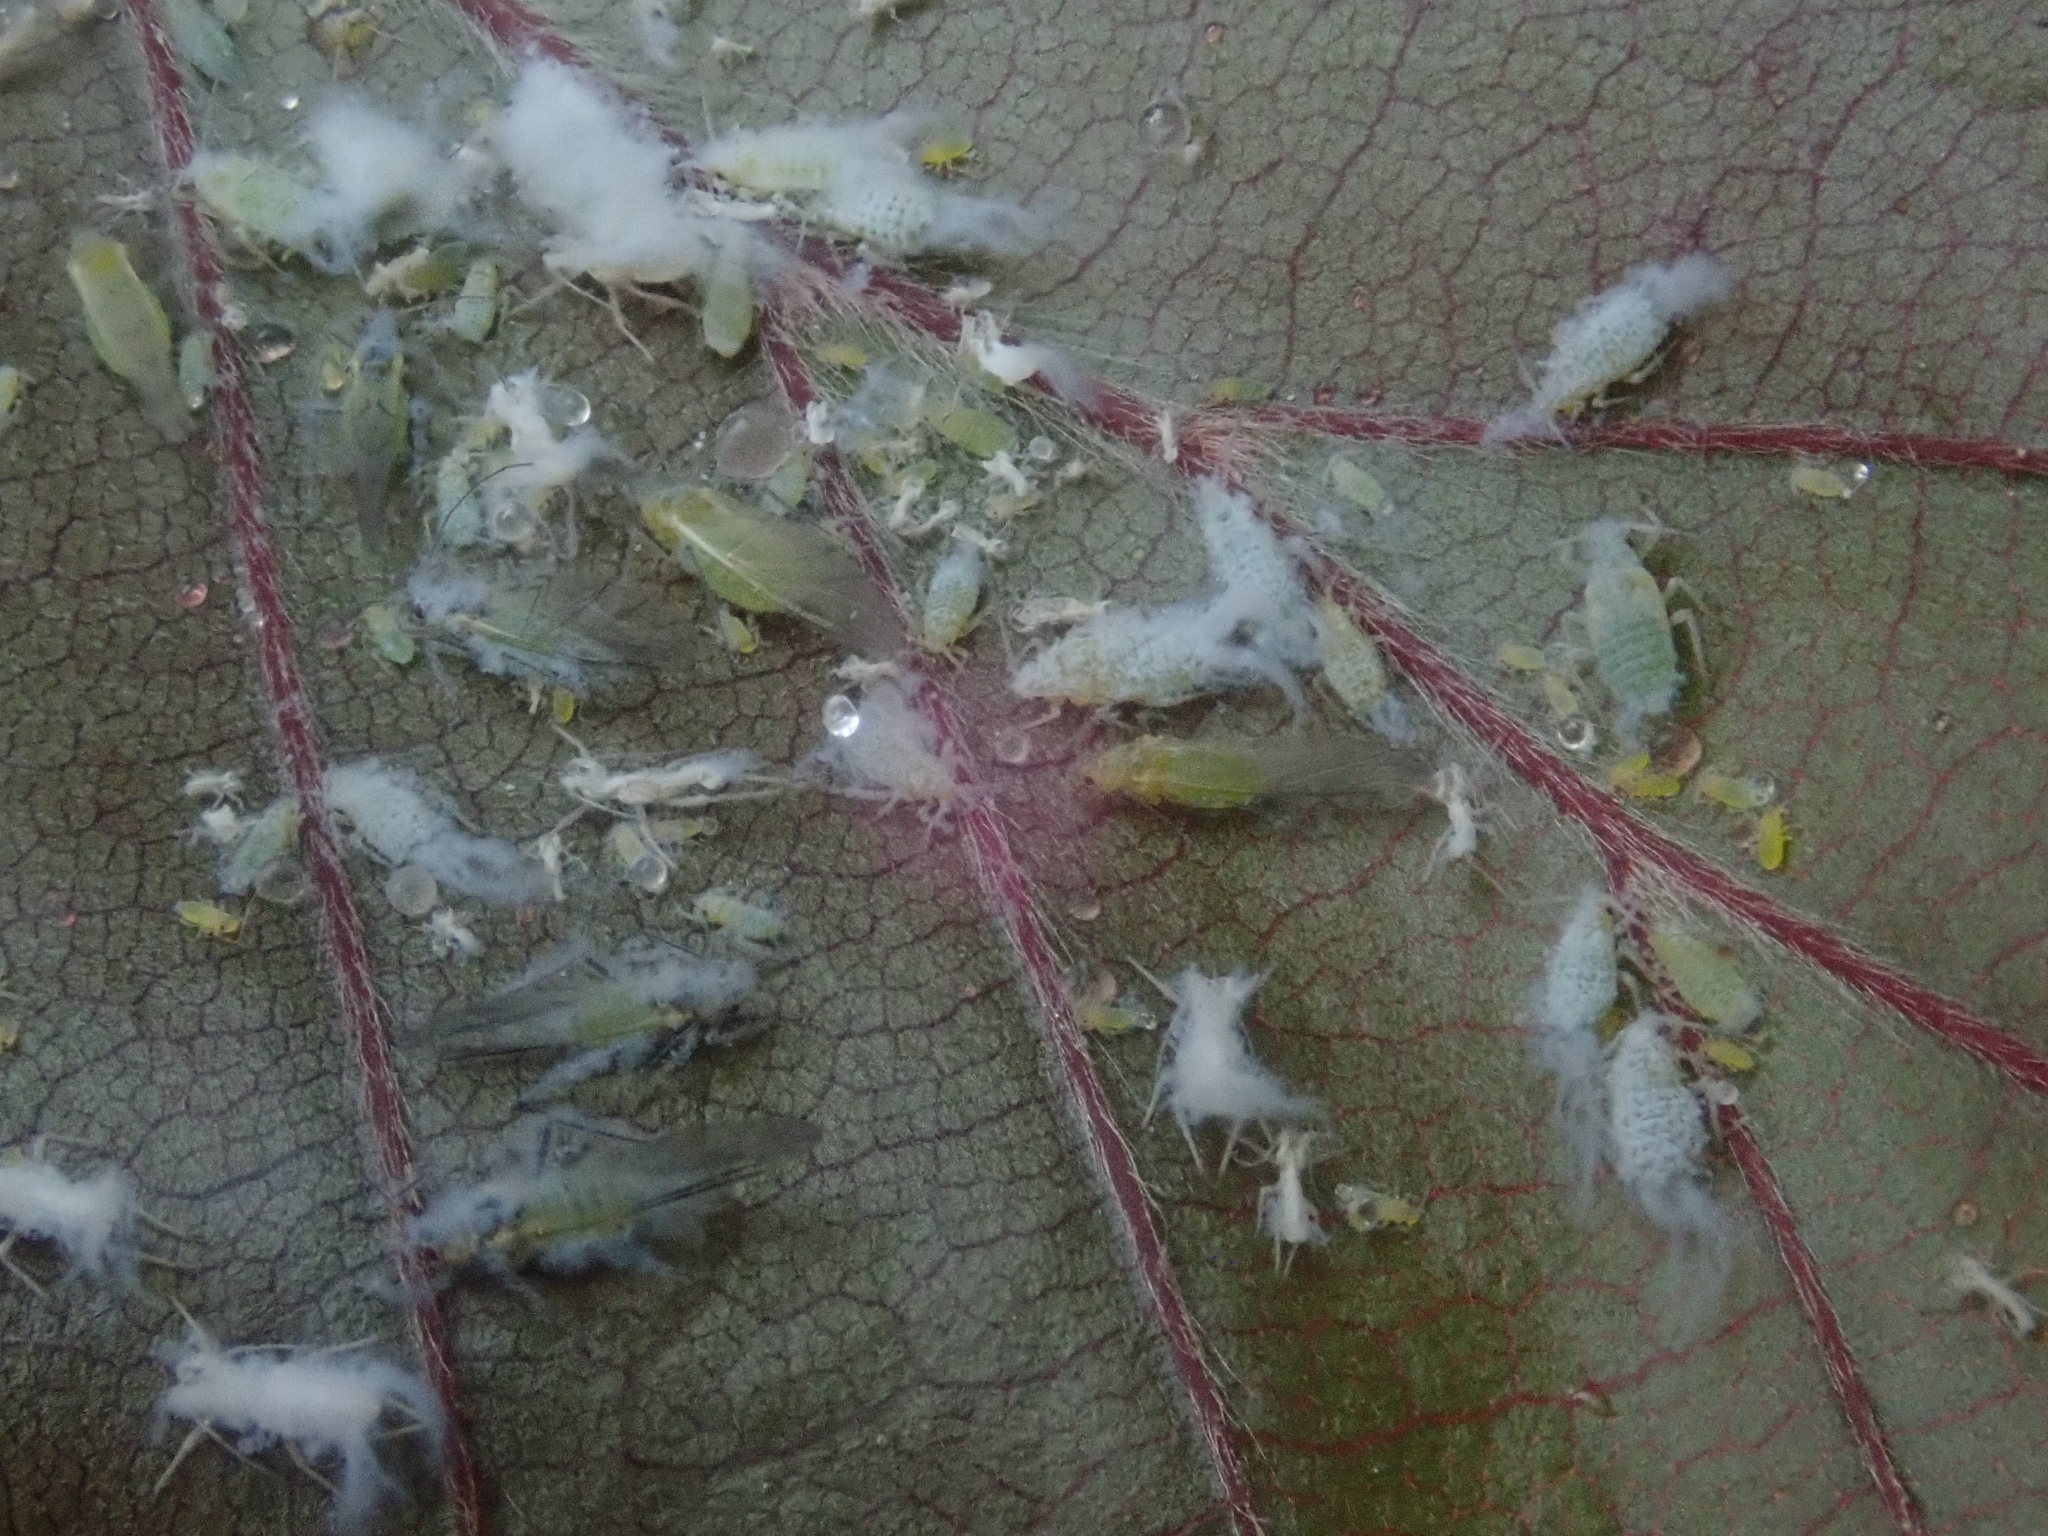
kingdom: Animalia
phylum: Arthropoda
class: Insecta
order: Hemiptera
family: Aphididae
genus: Phyllaphis
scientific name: Phyllaphis fagi
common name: Beech aphid
